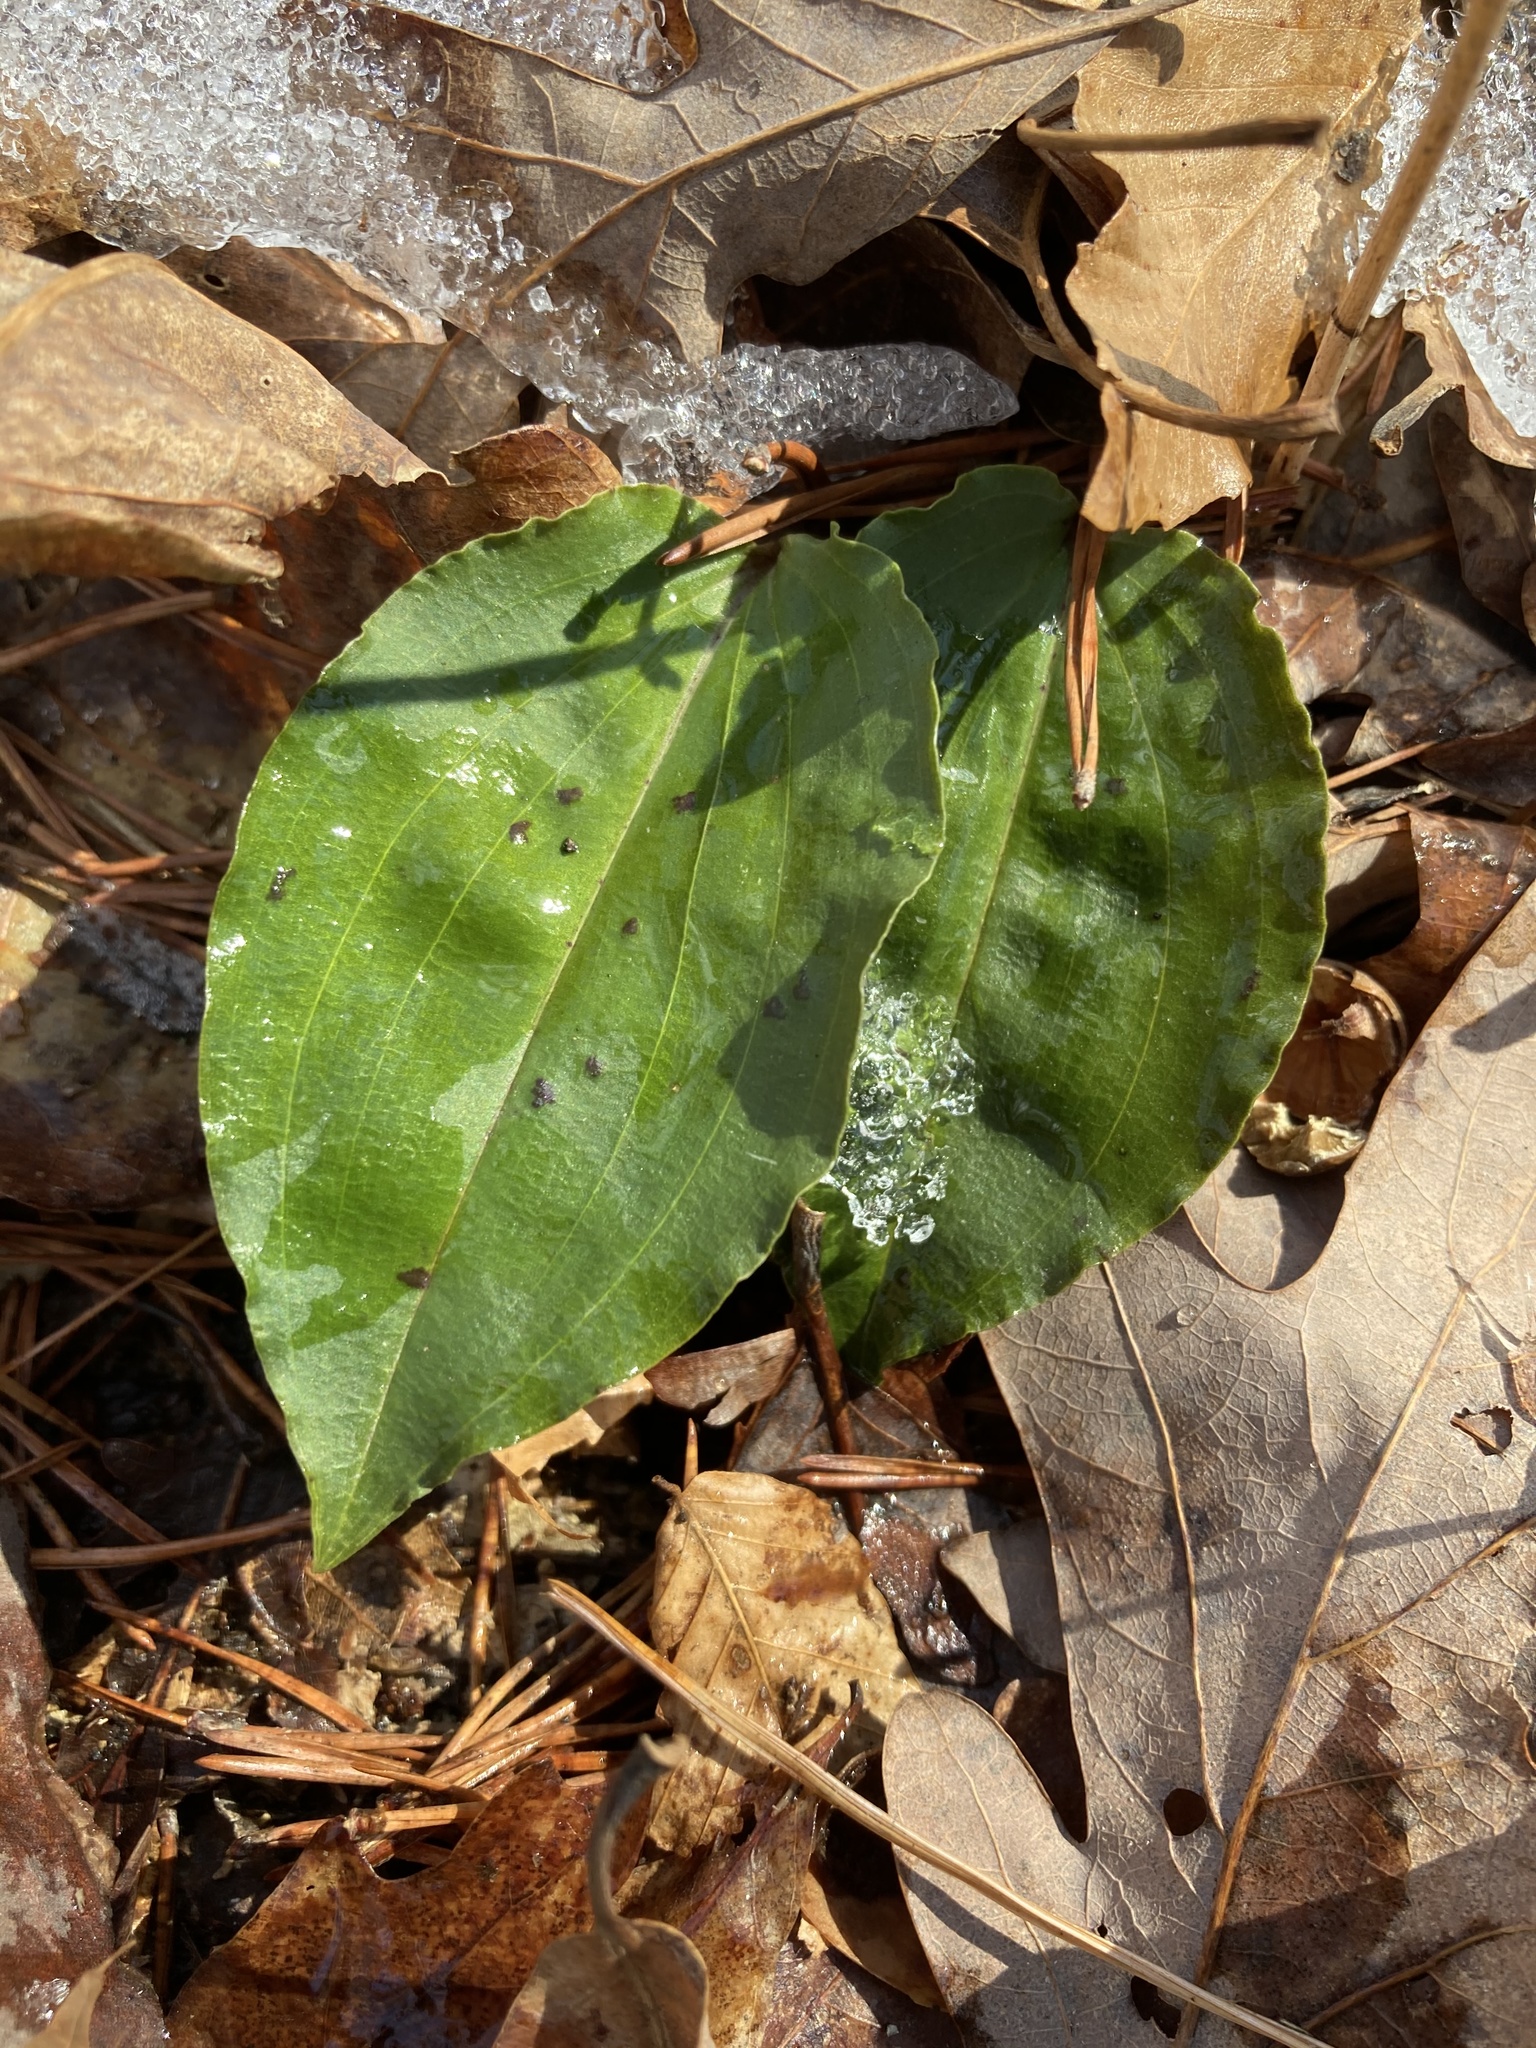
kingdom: Plantae
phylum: Tracheophyta
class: Liliopsida
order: Asparagales
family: Orchidaceae
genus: Tipularia
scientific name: Tipularia discolor
